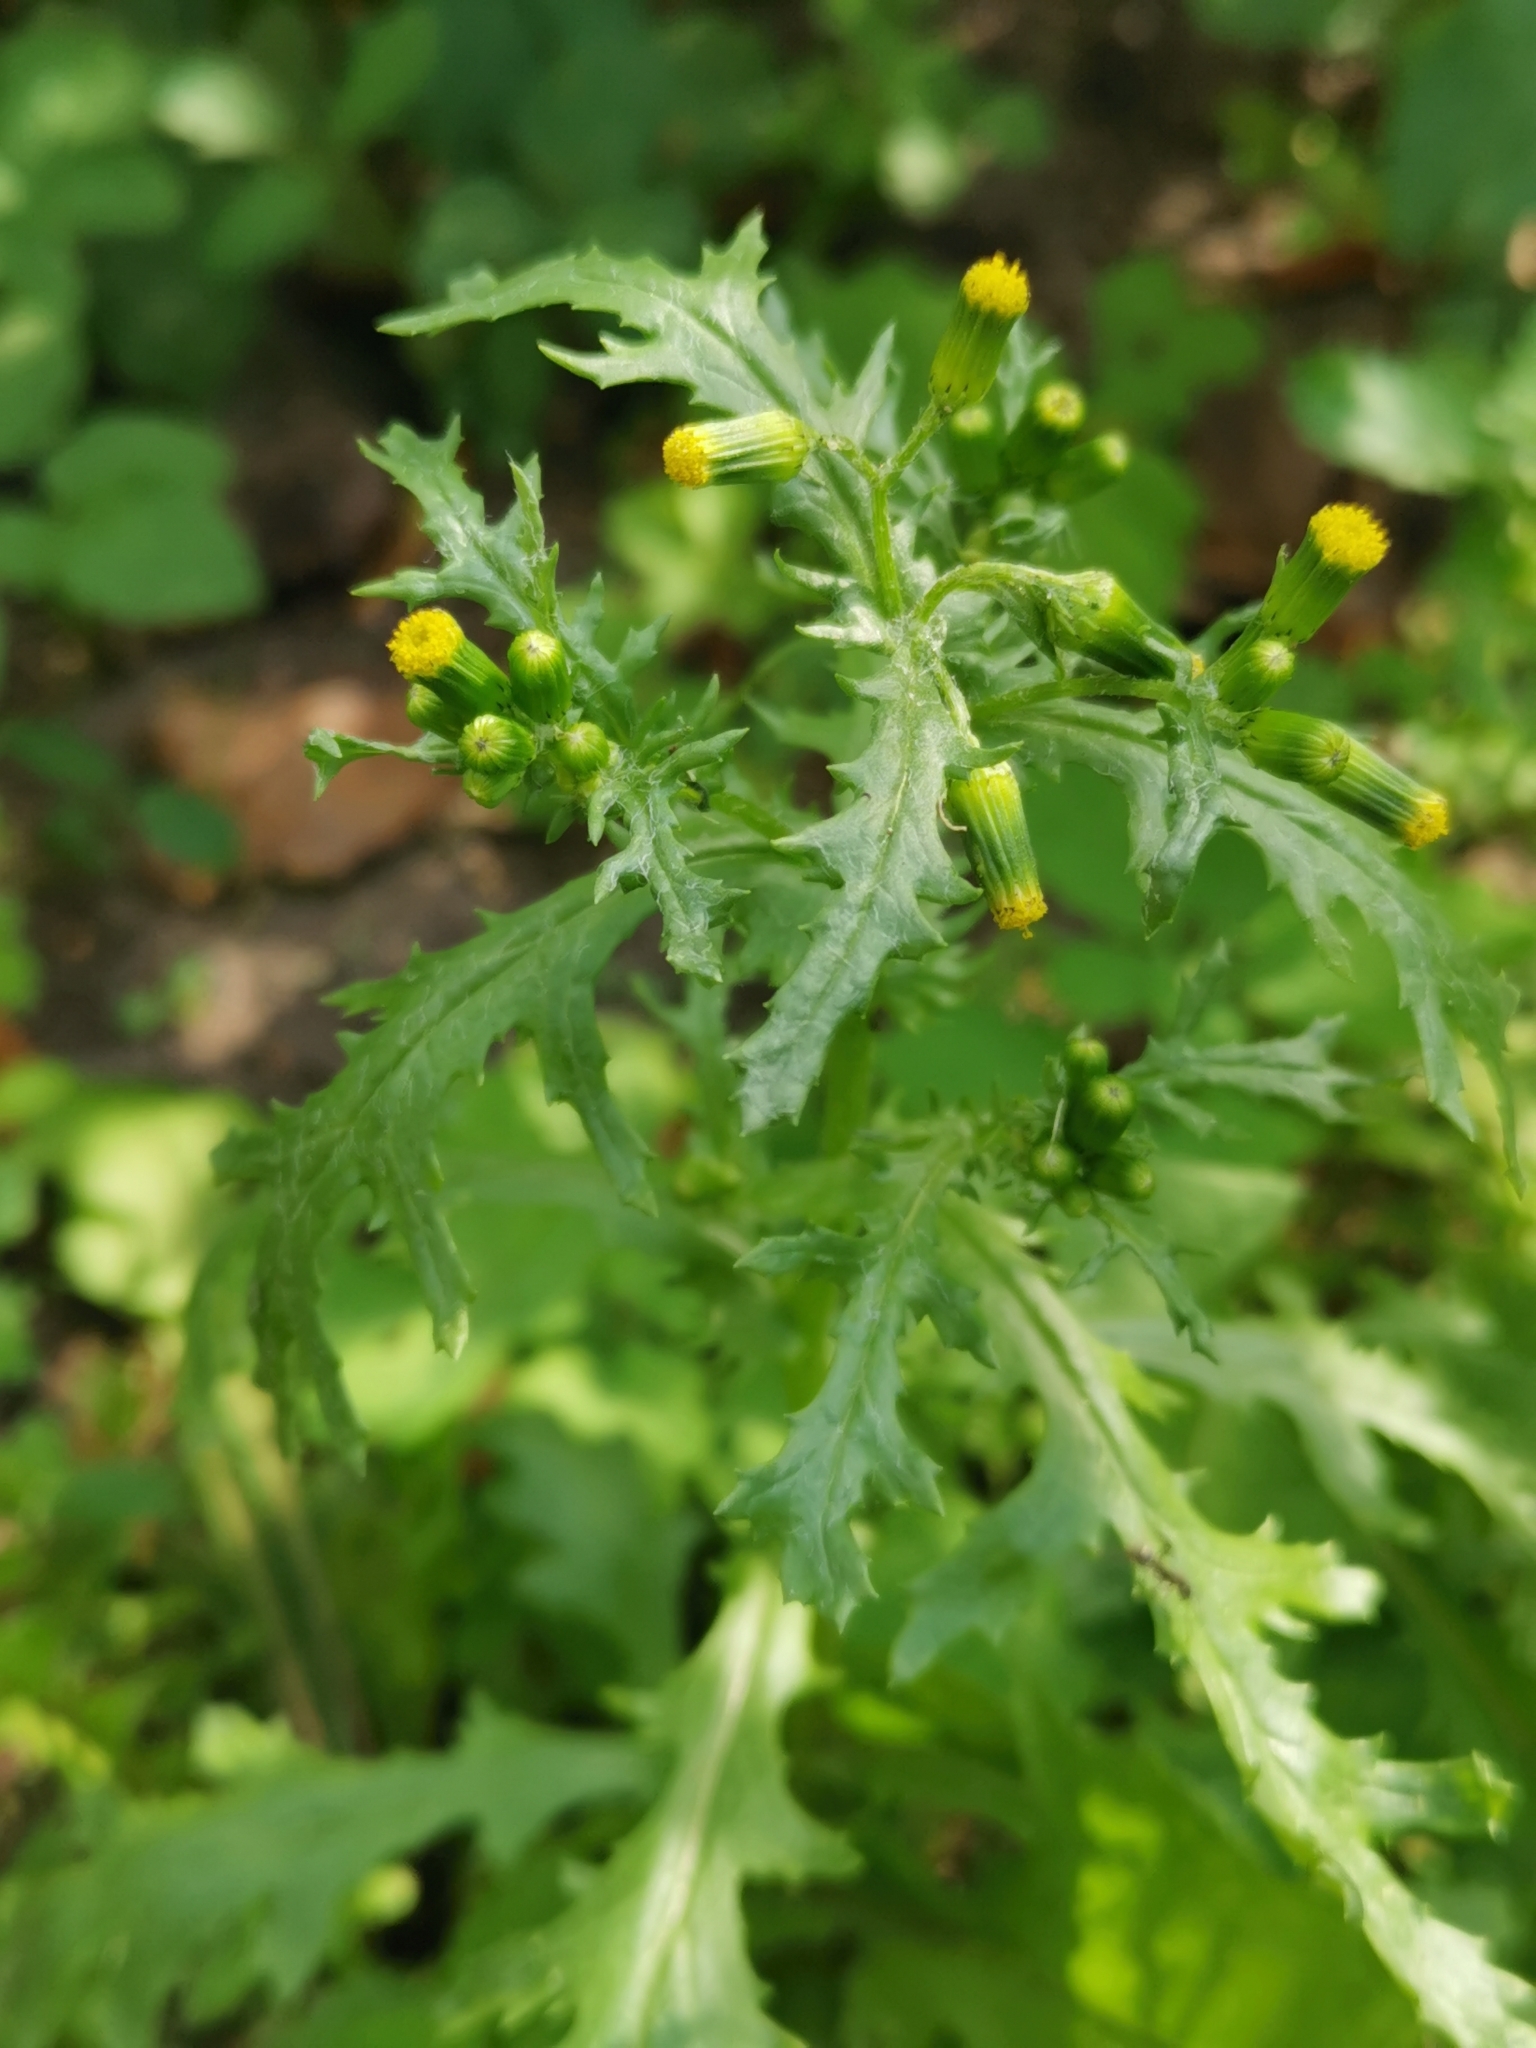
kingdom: Plantae
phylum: Tracheophyta
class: Magnoliopsida
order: Asterales
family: Asteraceae
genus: Senecio
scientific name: Senecio vulgaris
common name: Old-man-in-the-spring
